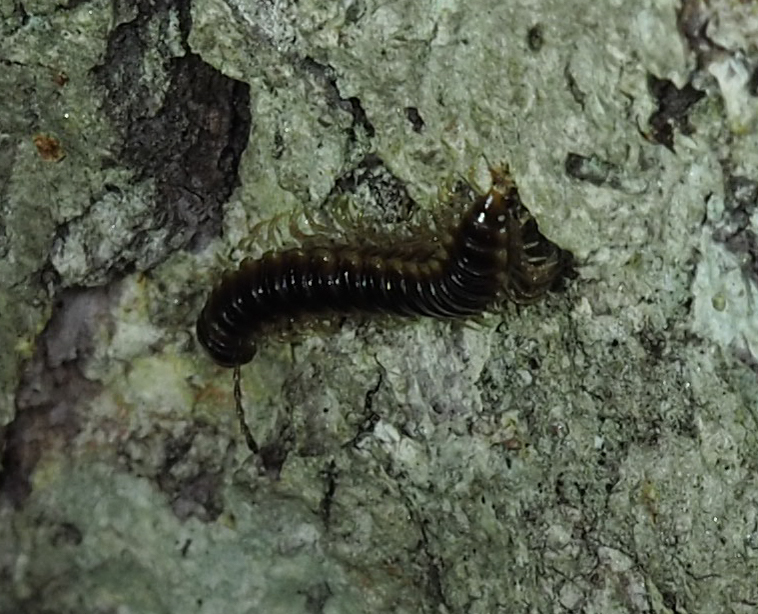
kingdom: Animalia
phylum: Arthropoda
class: Diplopoda
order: Polydesmida
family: Paradoxosomatidae
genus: Oxidus
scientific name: Oxidus gracilis
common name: Greenhouse millipede
